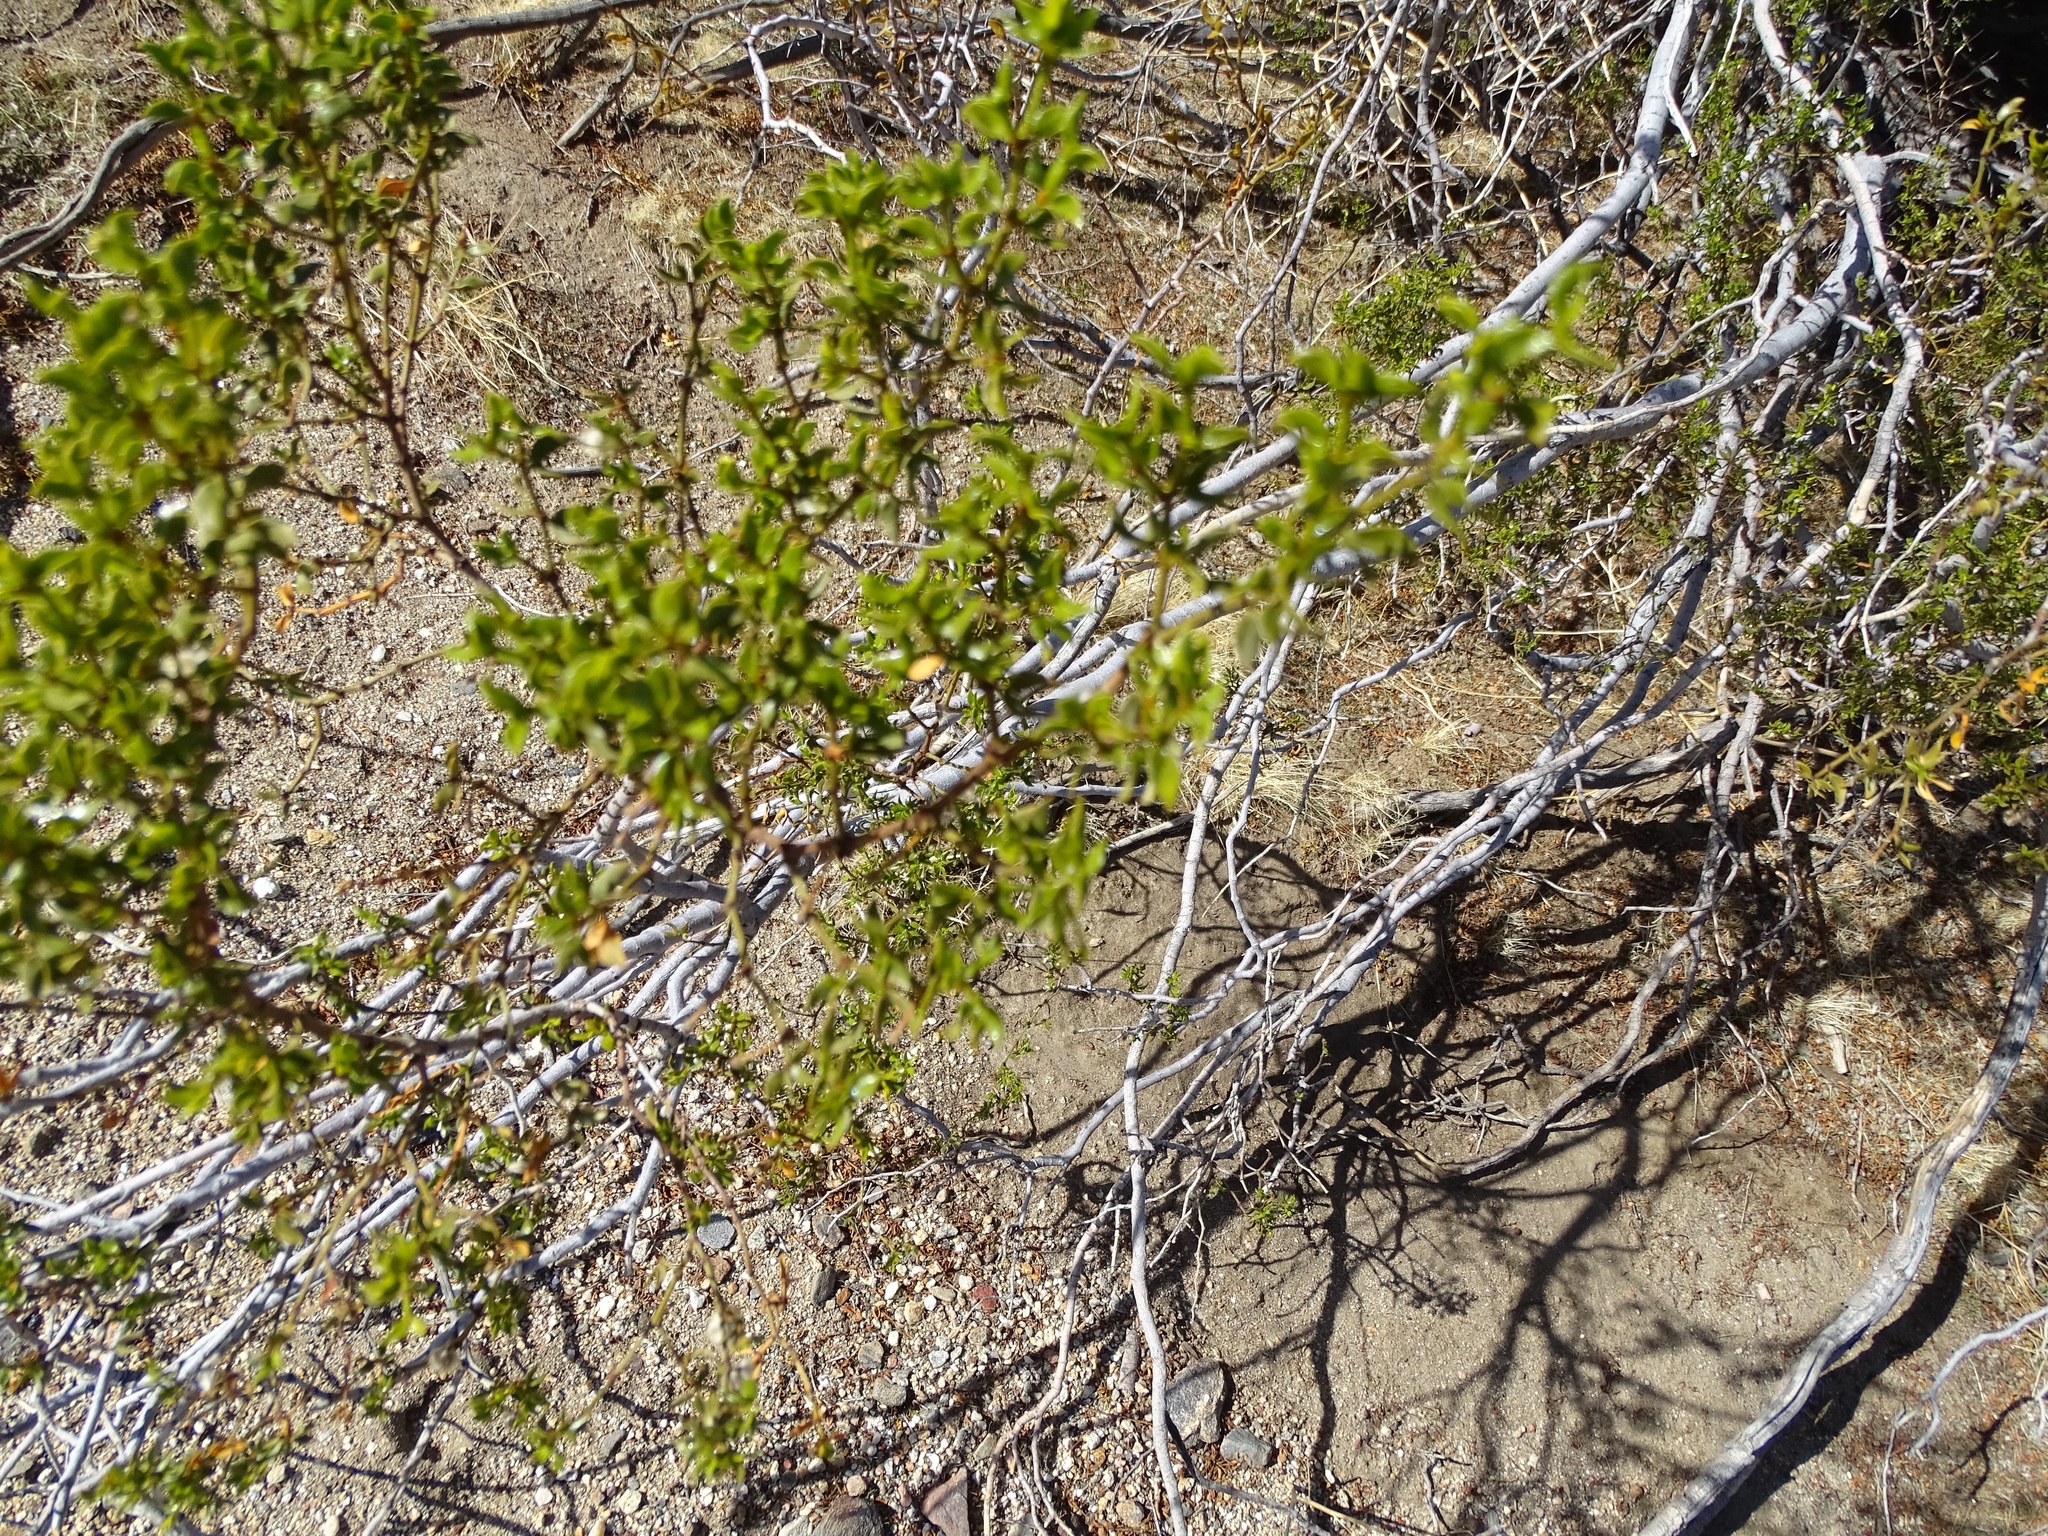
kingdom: Plantae
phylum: Tracheophyta
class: Magnoliopsida
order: Zygophyllales
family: Zygophyllaceae
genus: Larrea
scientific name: Larrea tridentata
